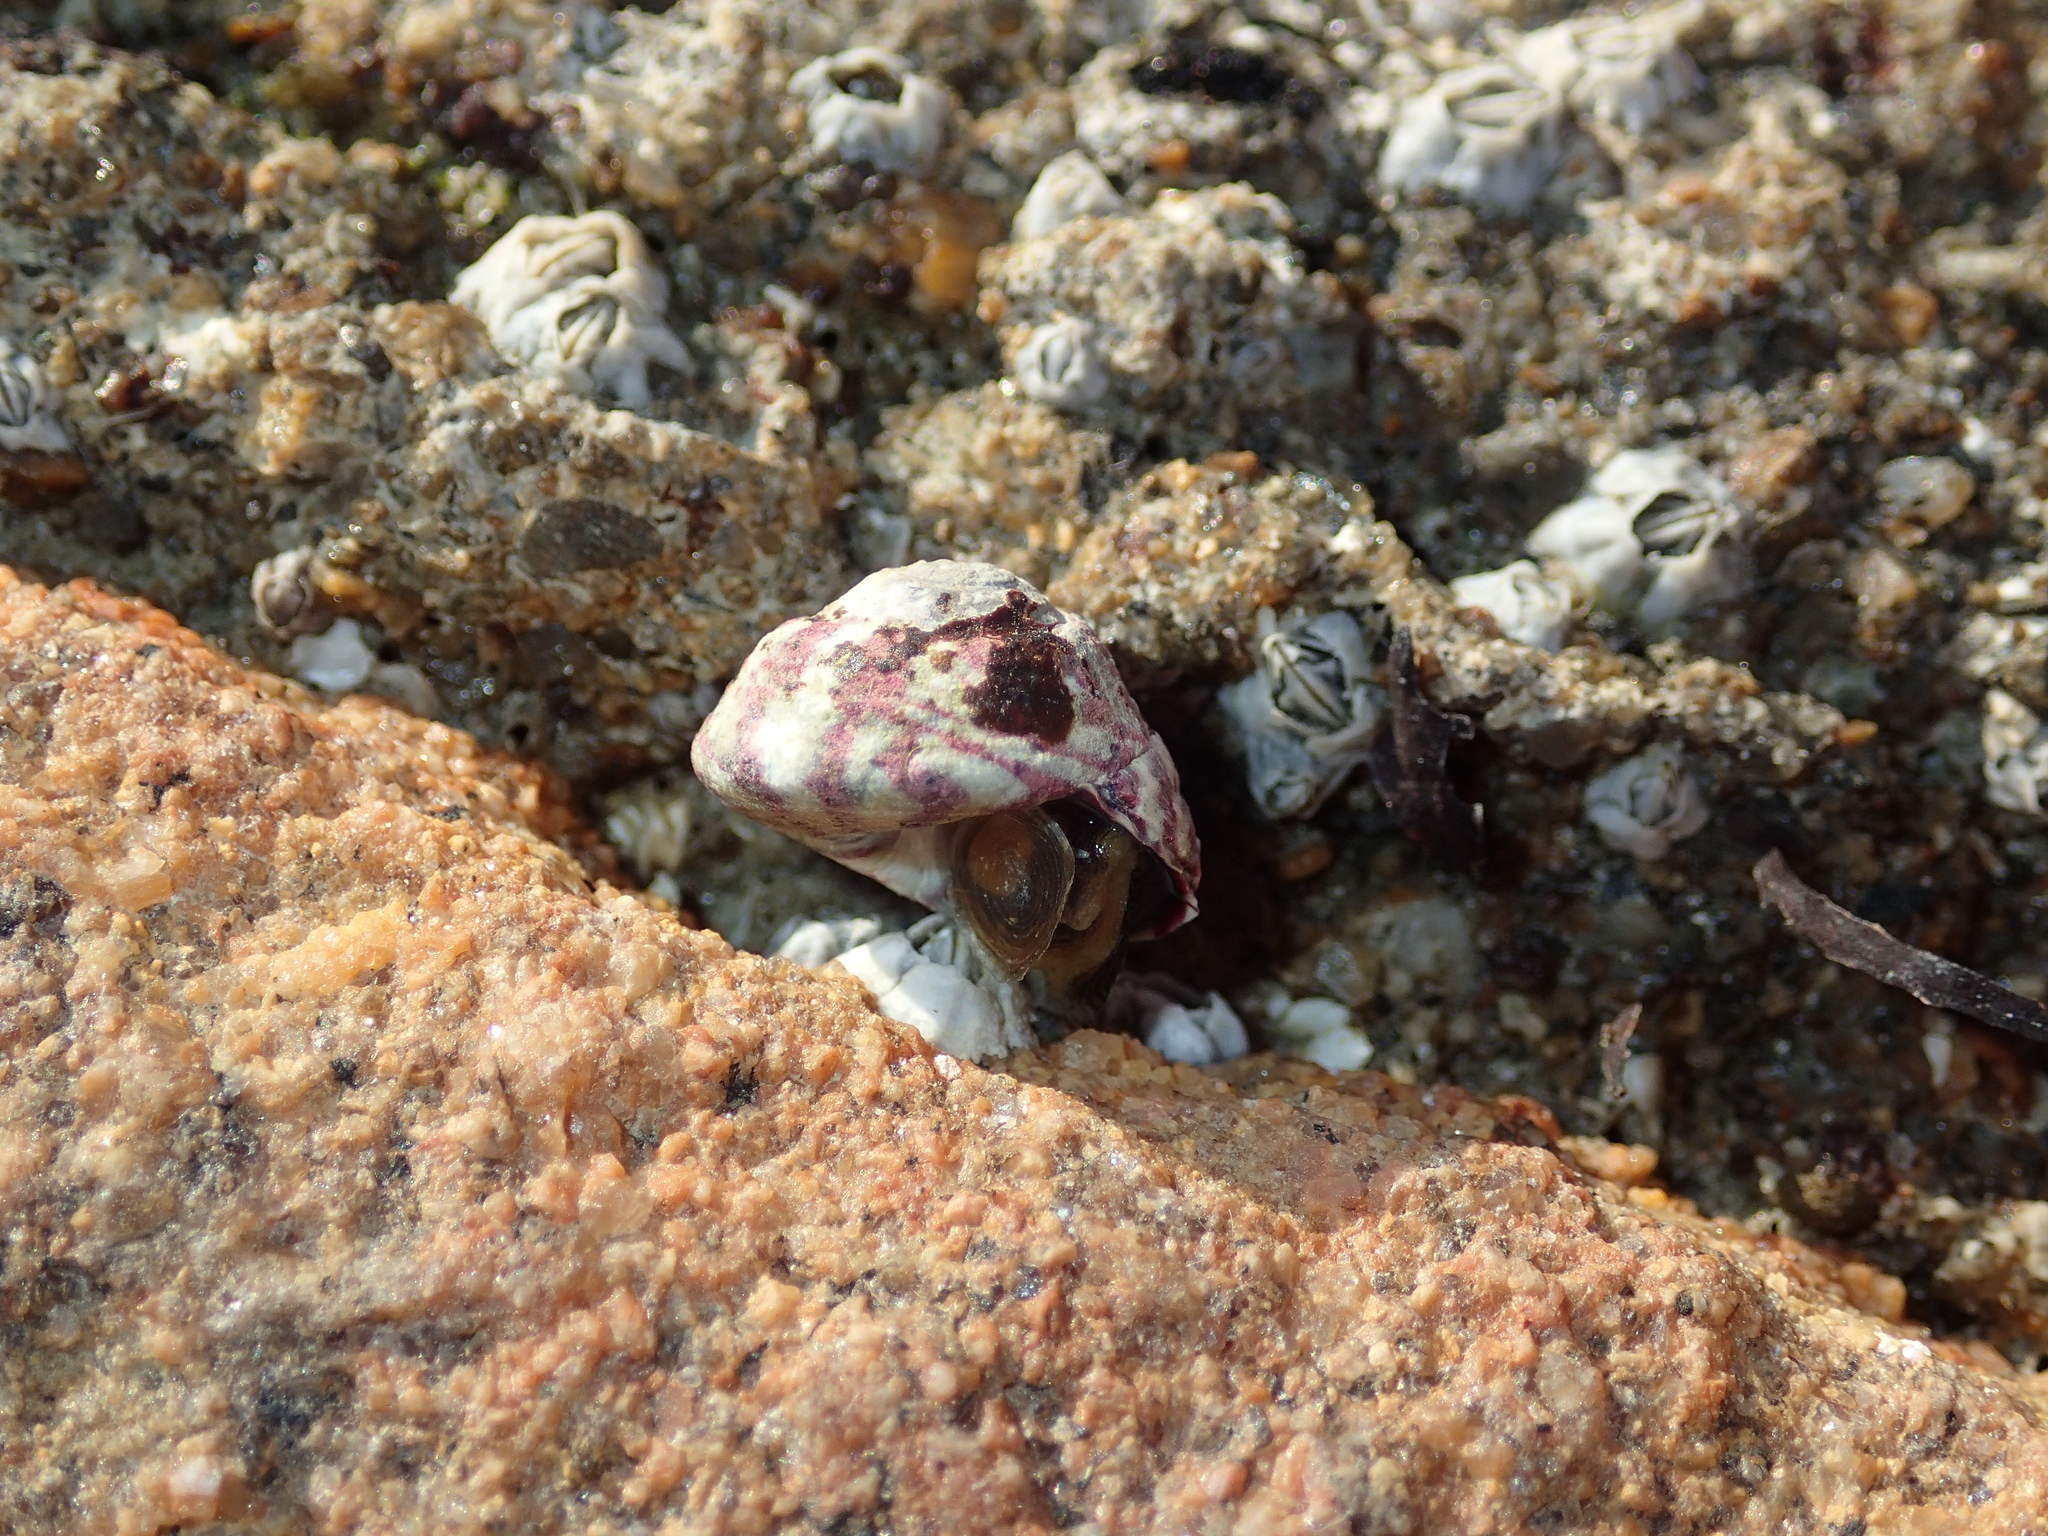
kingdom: Animalia
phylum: Mollusca
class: Gastropoda
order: Trochida
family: Trochidae
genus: Steromphala
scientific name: Steromphala umbilicalis
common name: Flat top shell
